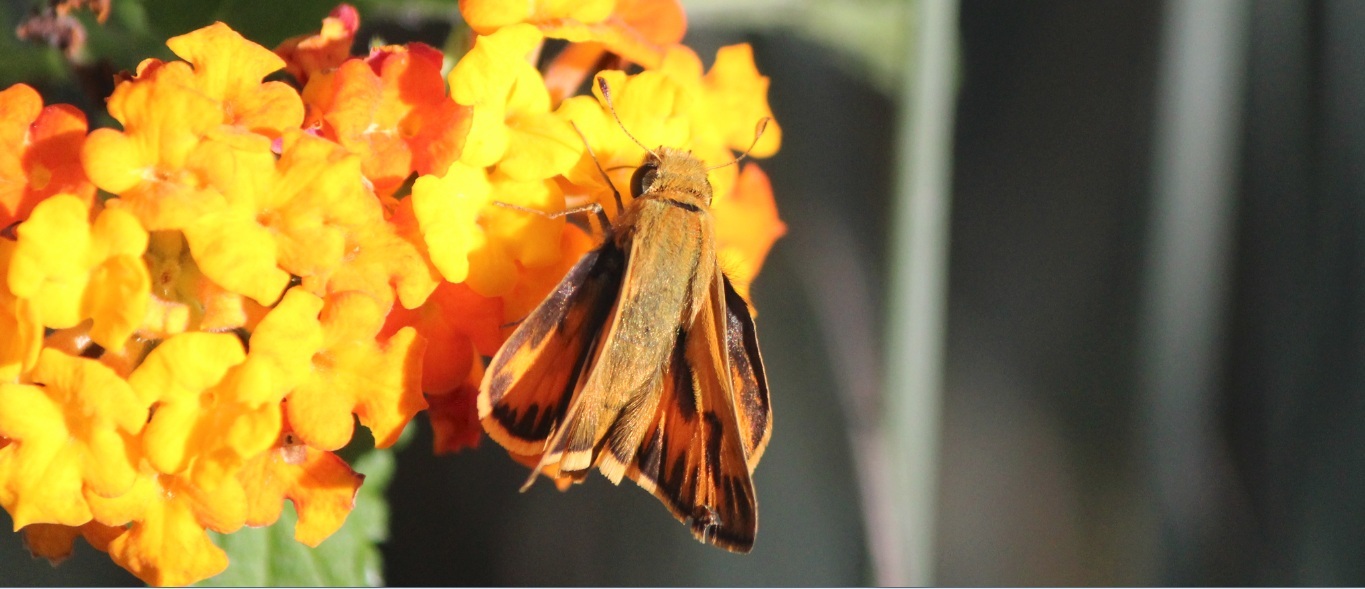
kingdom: Animalia
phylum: Arthropoda
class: Insecta
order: Lepidoptera
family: Hesperiidae
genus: Hylephila
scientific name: Hylephila phyleus
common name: Fiery skipper
